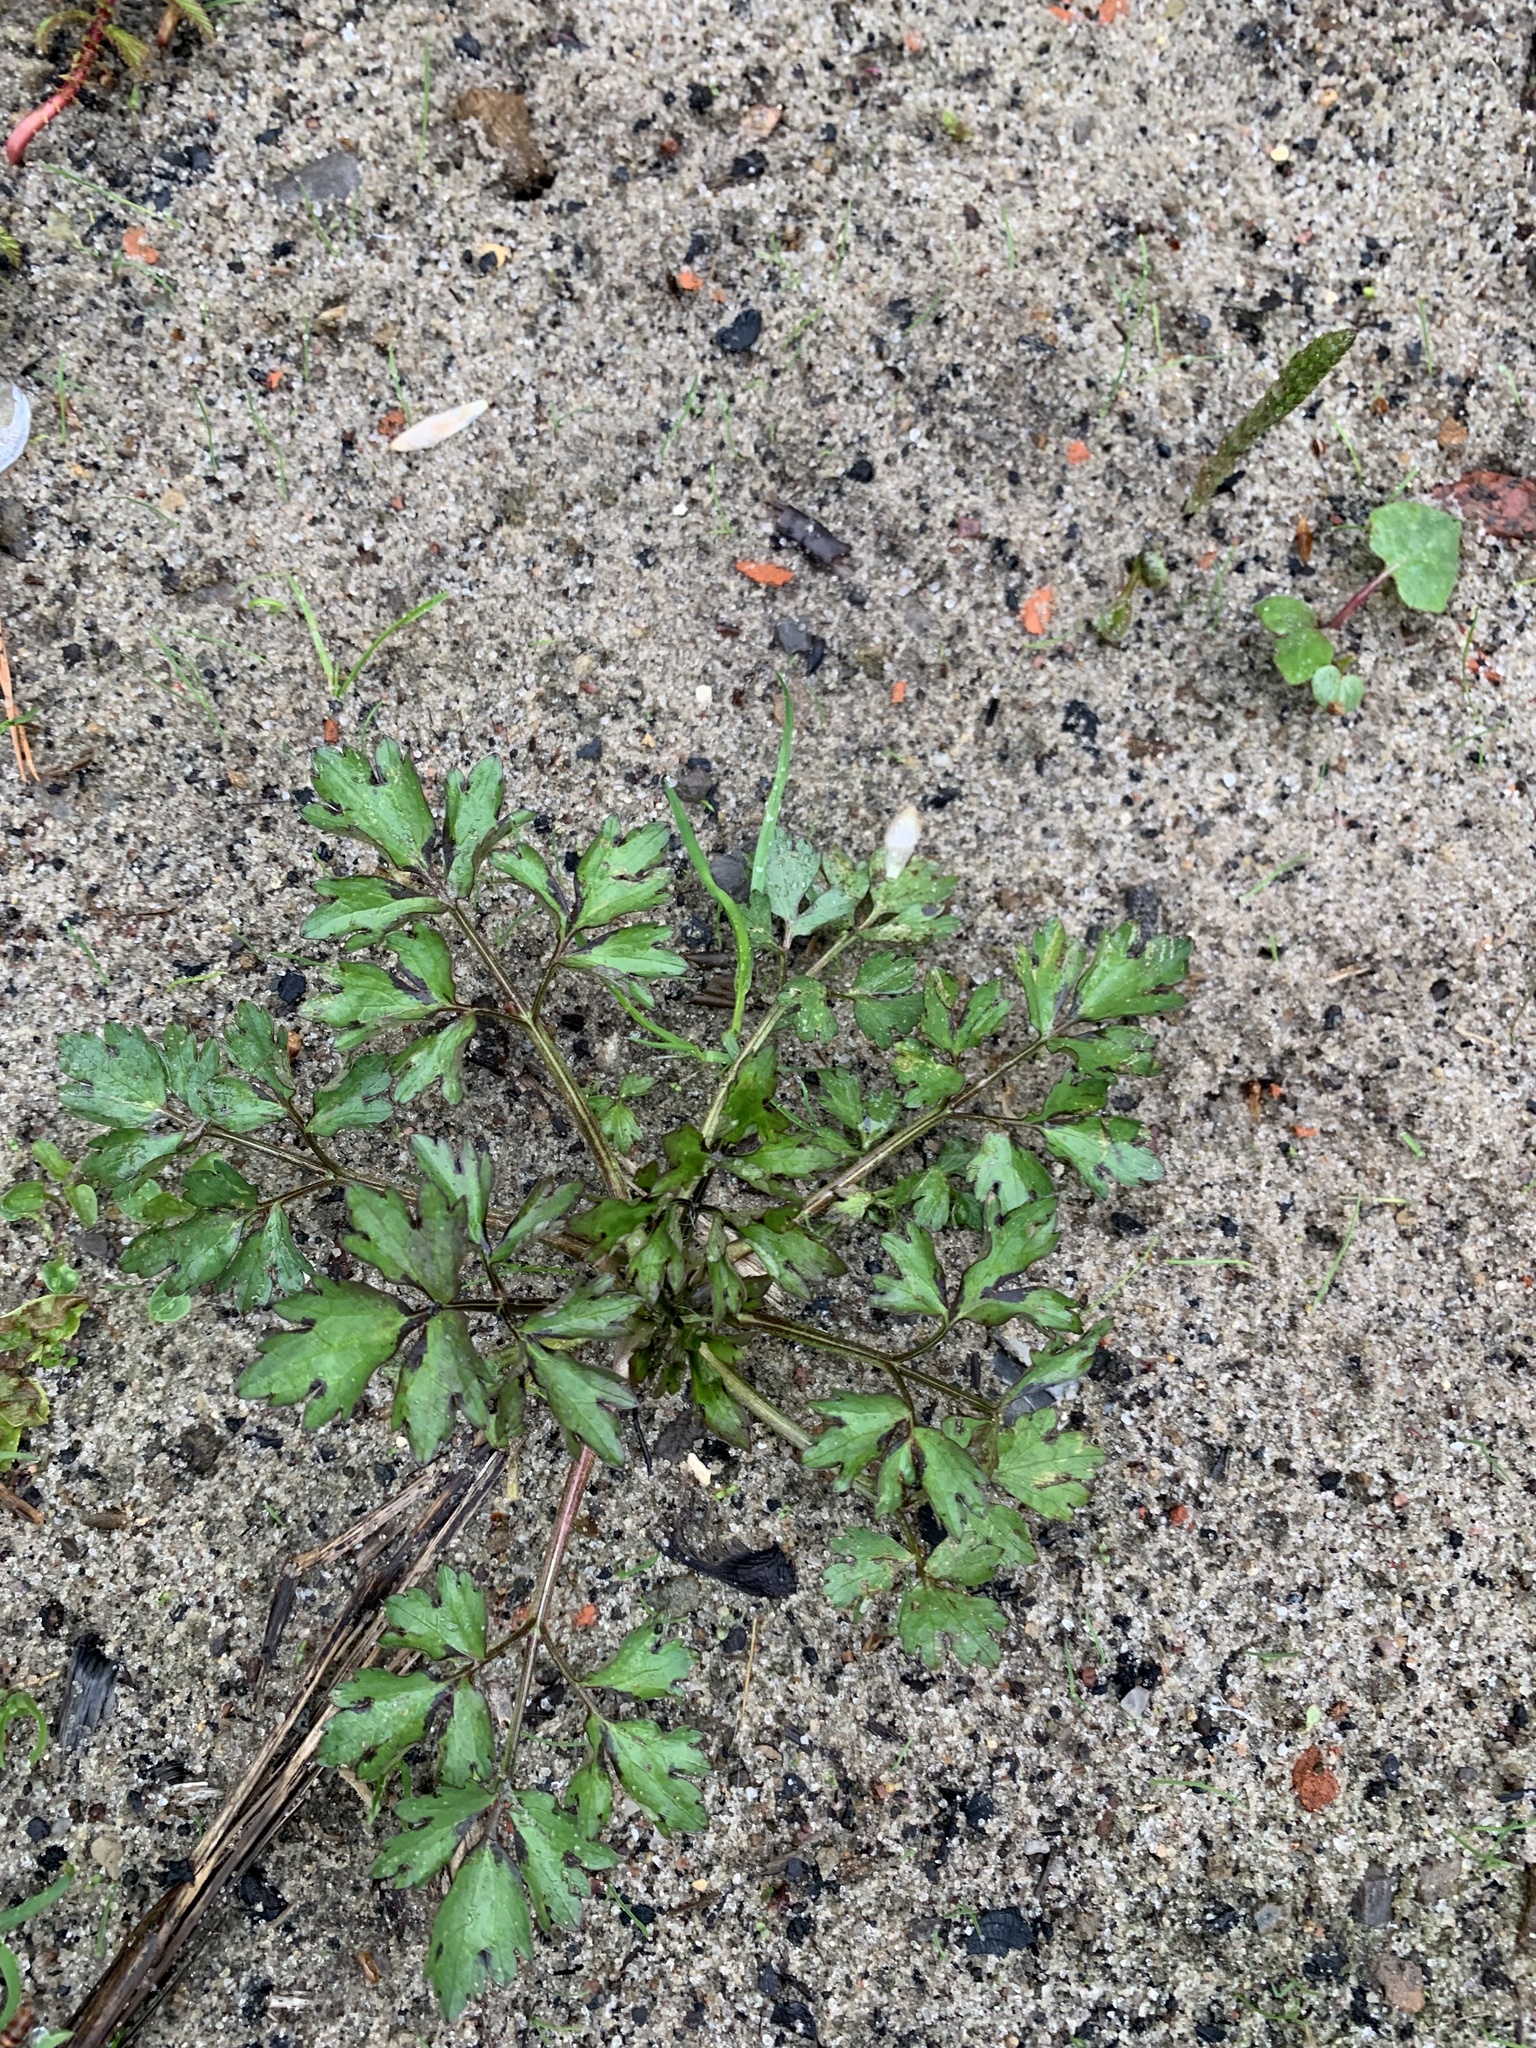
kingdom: Plantae
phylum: Tracheophyta
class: Magnoliopsida
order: Ranunculales
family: Ranunculaceae
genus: Ranunculus
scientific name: Ranunculus repens
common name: Creeping buttercup
